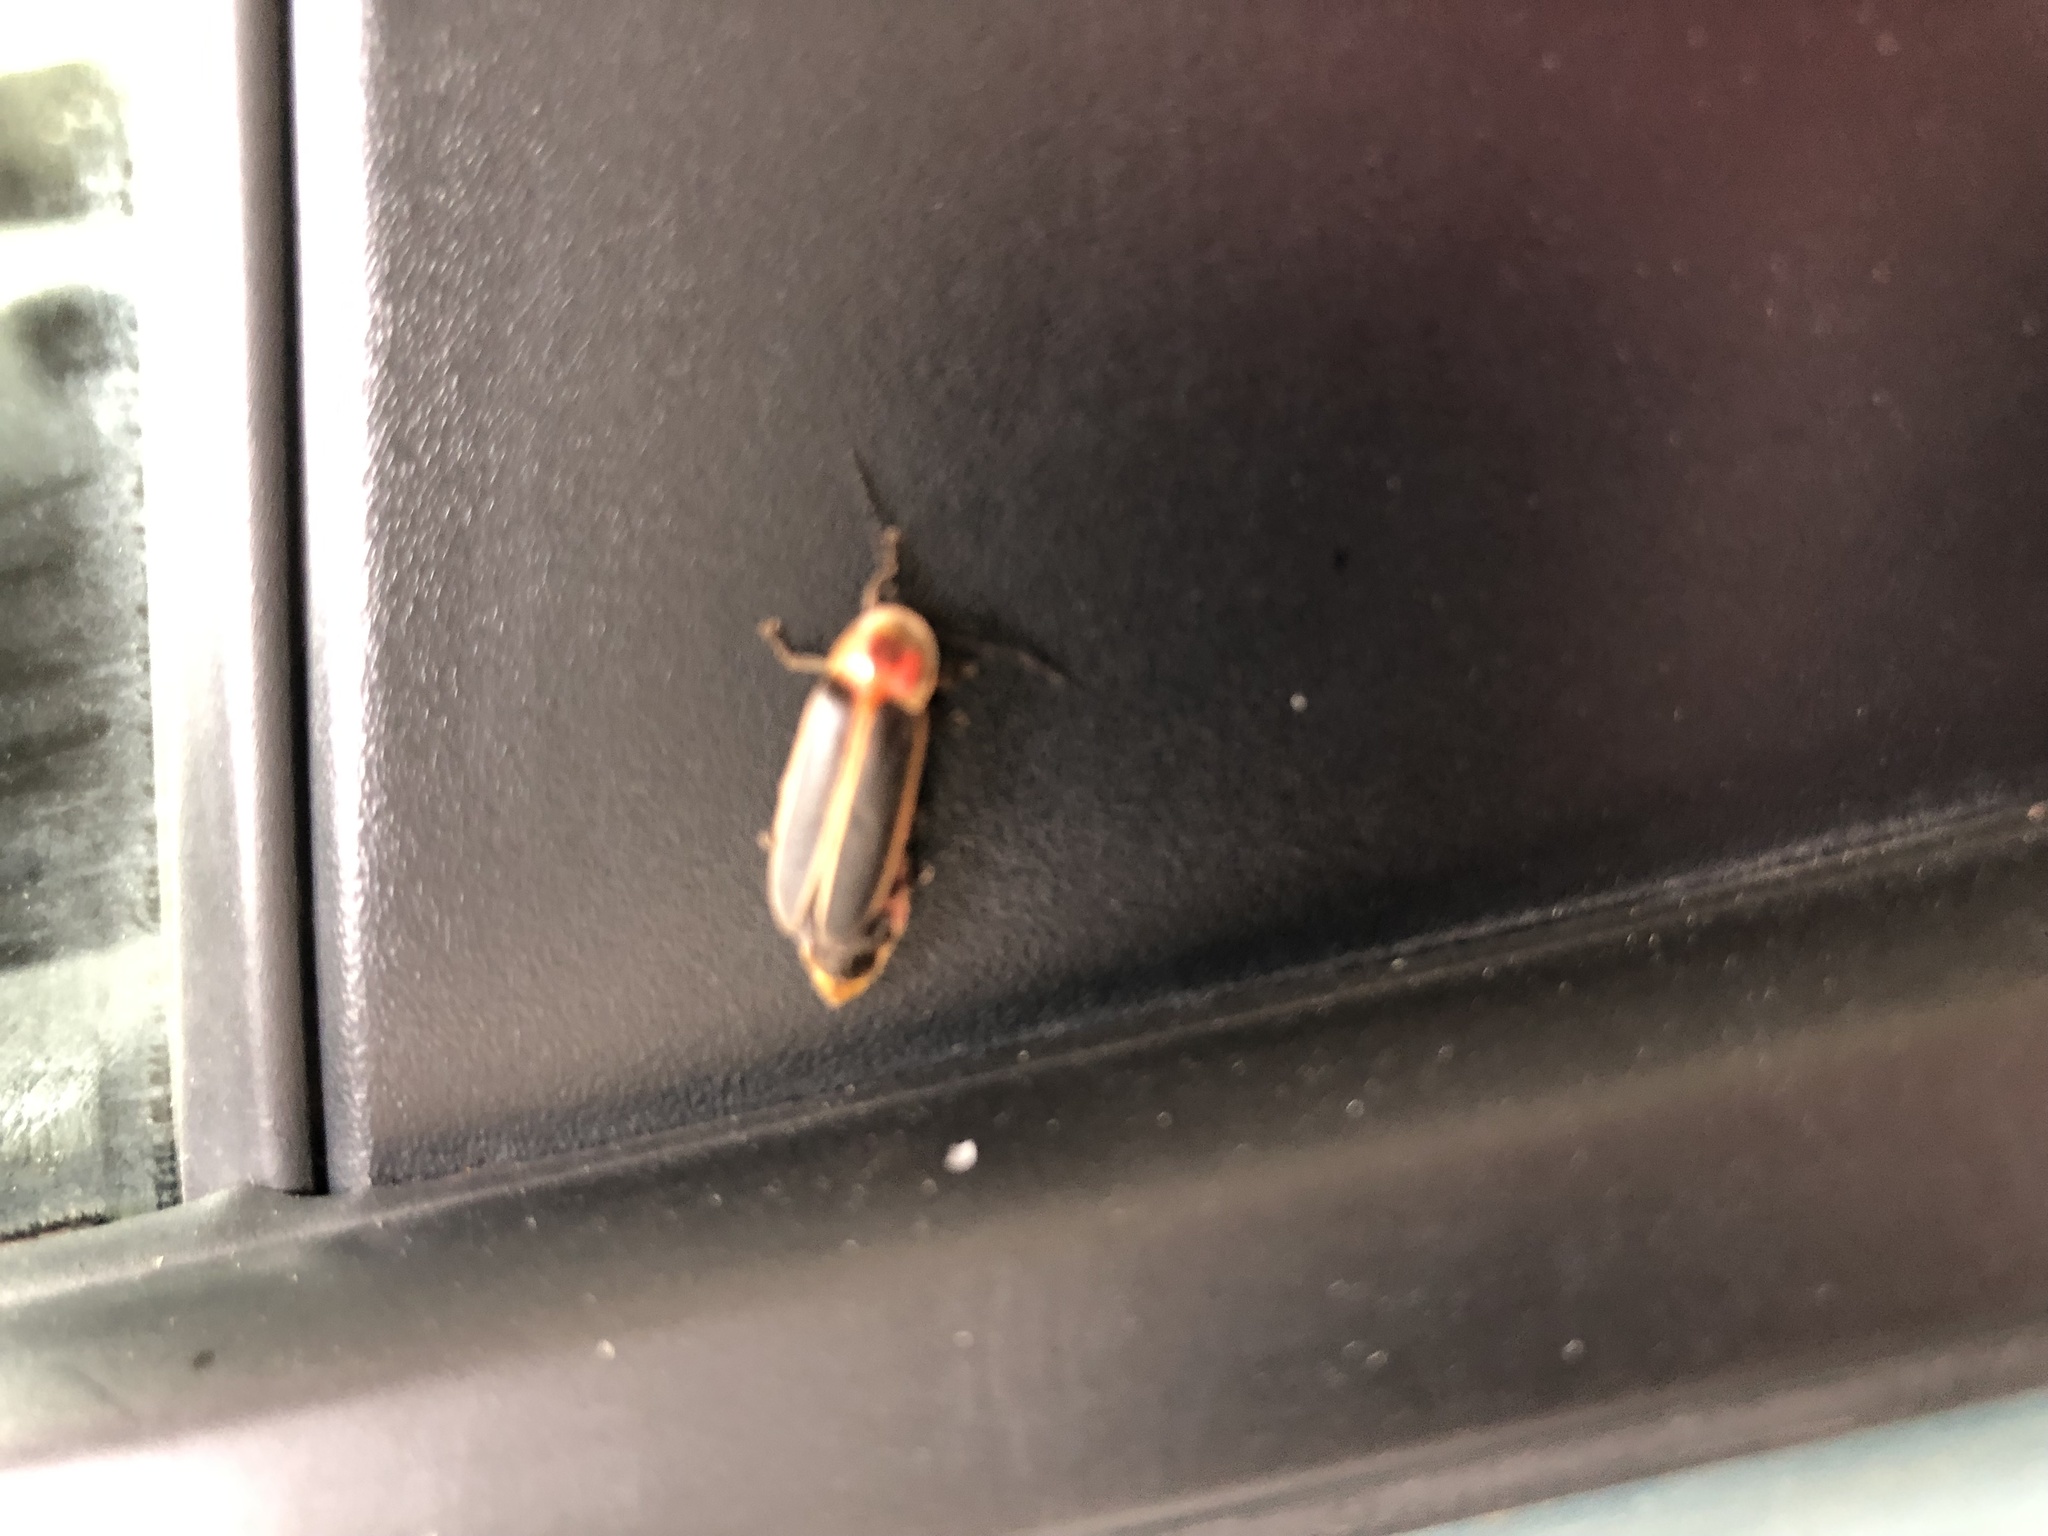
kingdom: Animalia
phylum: Arthropoda
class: Insecta
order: Coleoptera
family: Lampyridae
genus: Photinus
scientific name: Photinus pyralis
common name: Big dipper firefly
